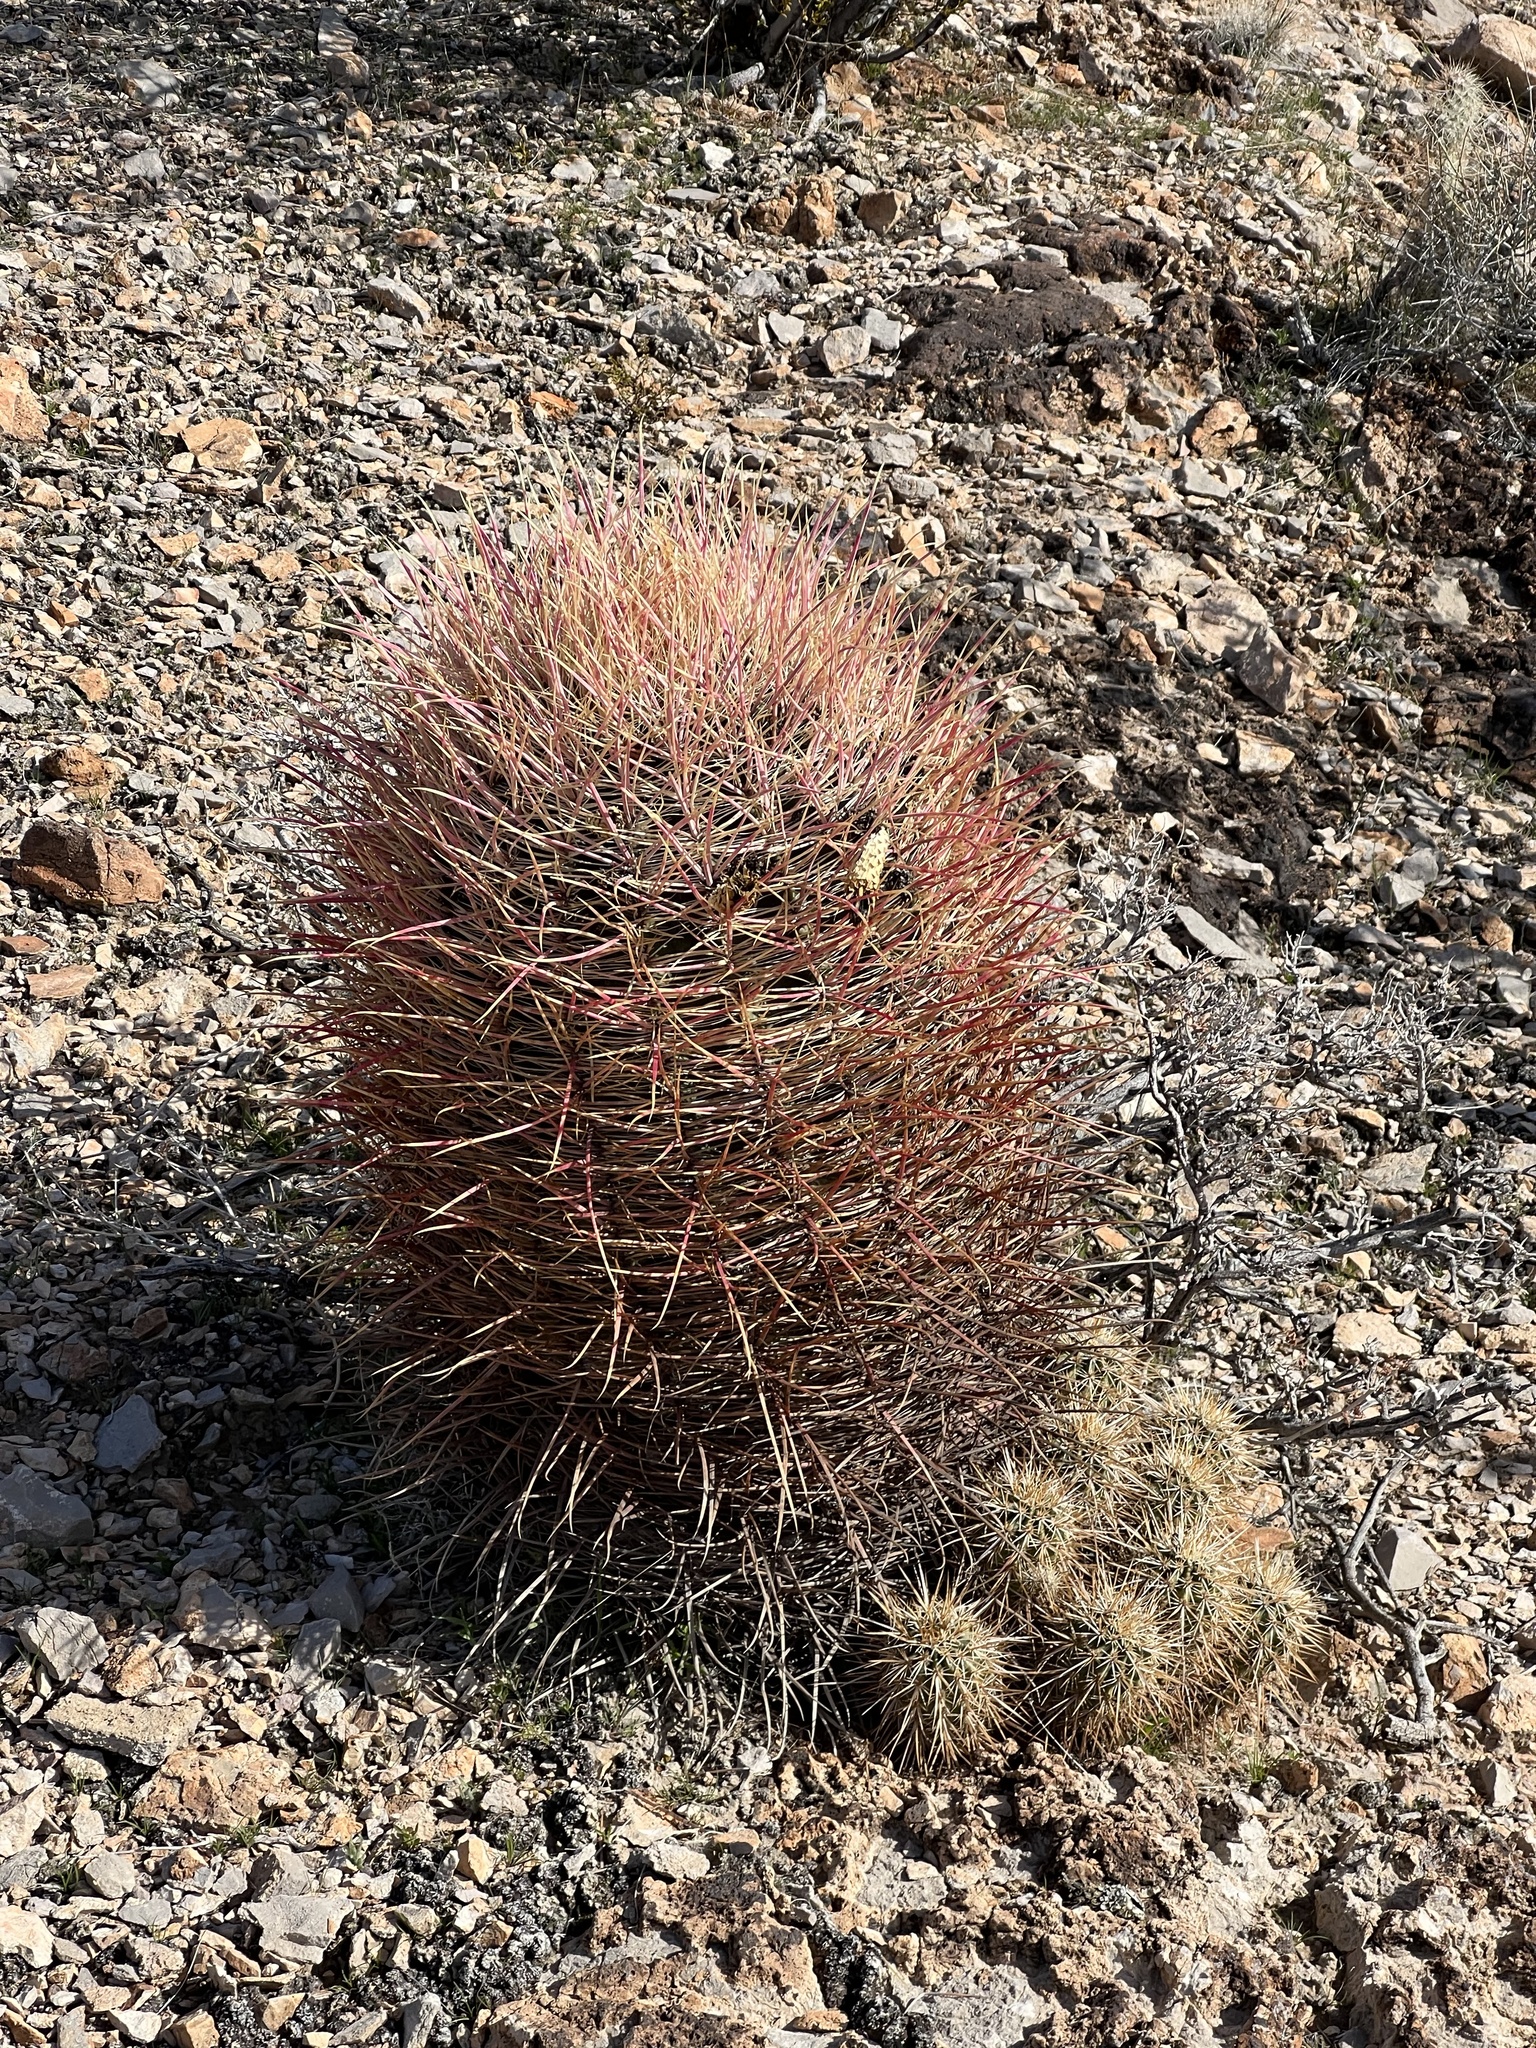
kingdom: Plantae
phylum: Tracheophyta
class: Magnoliopsida
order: Caryophyllales
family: Cactaceae
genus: Ferocactus
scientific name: Ferocactus cylindraceus
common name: California barrel cactus
